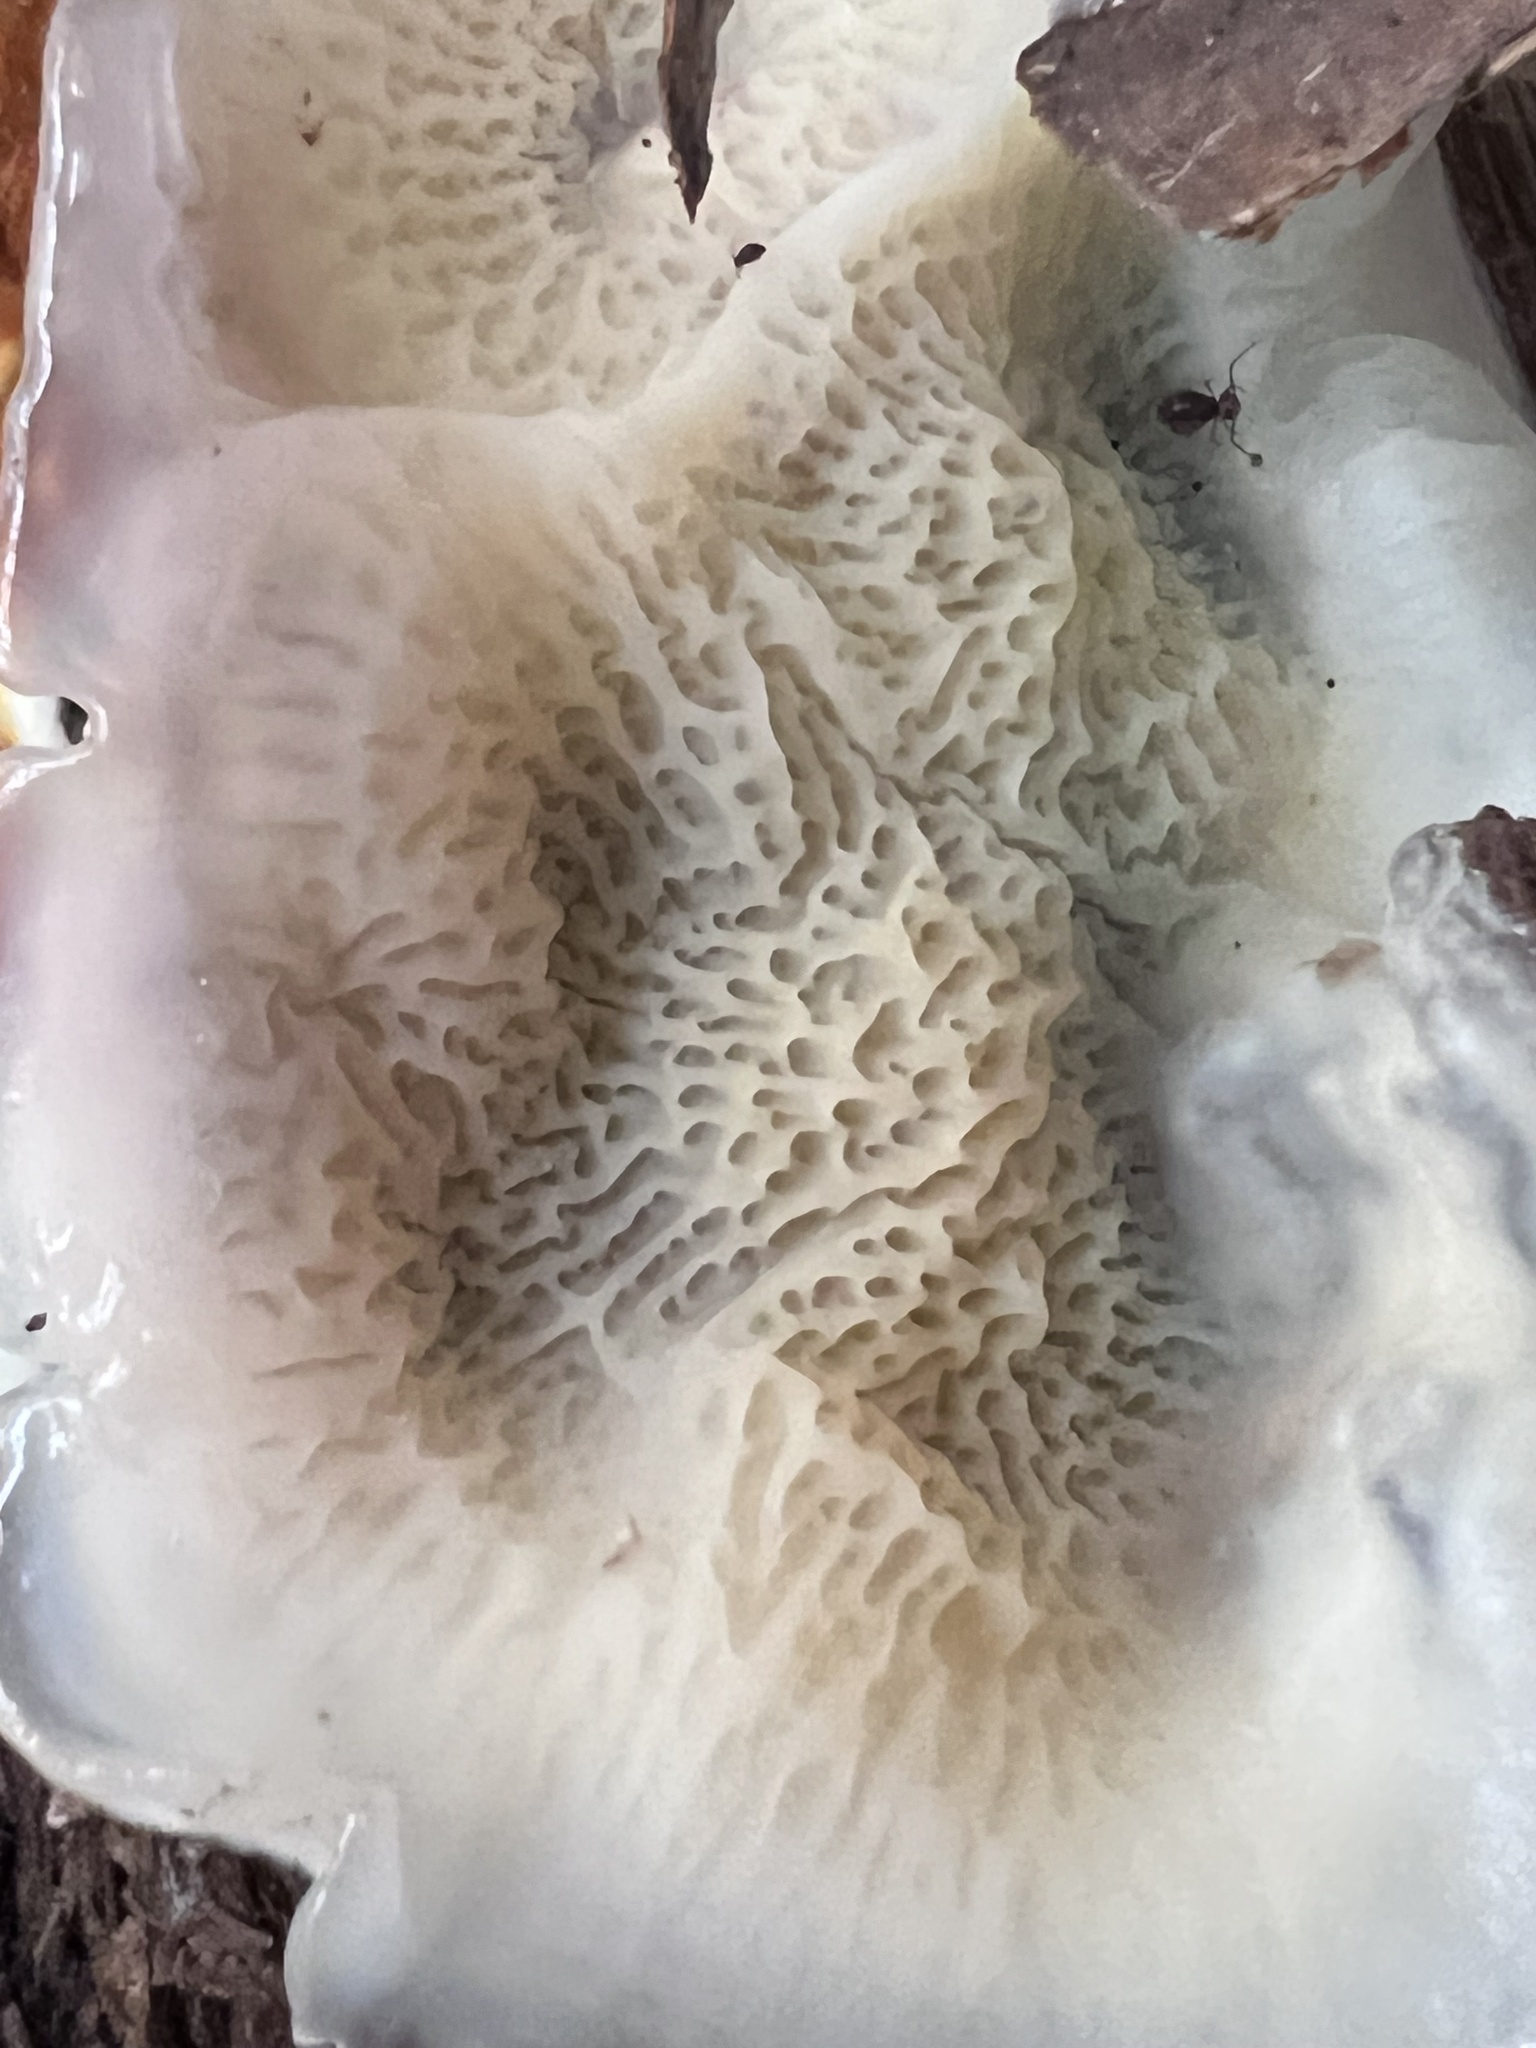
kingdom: Fungi
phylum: Basidiomycota
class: Agaricomycetes
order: Polyporales
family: Meruliaceae
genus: Phlebia
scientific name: Phlebia tremellosa
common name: Jelly rot
